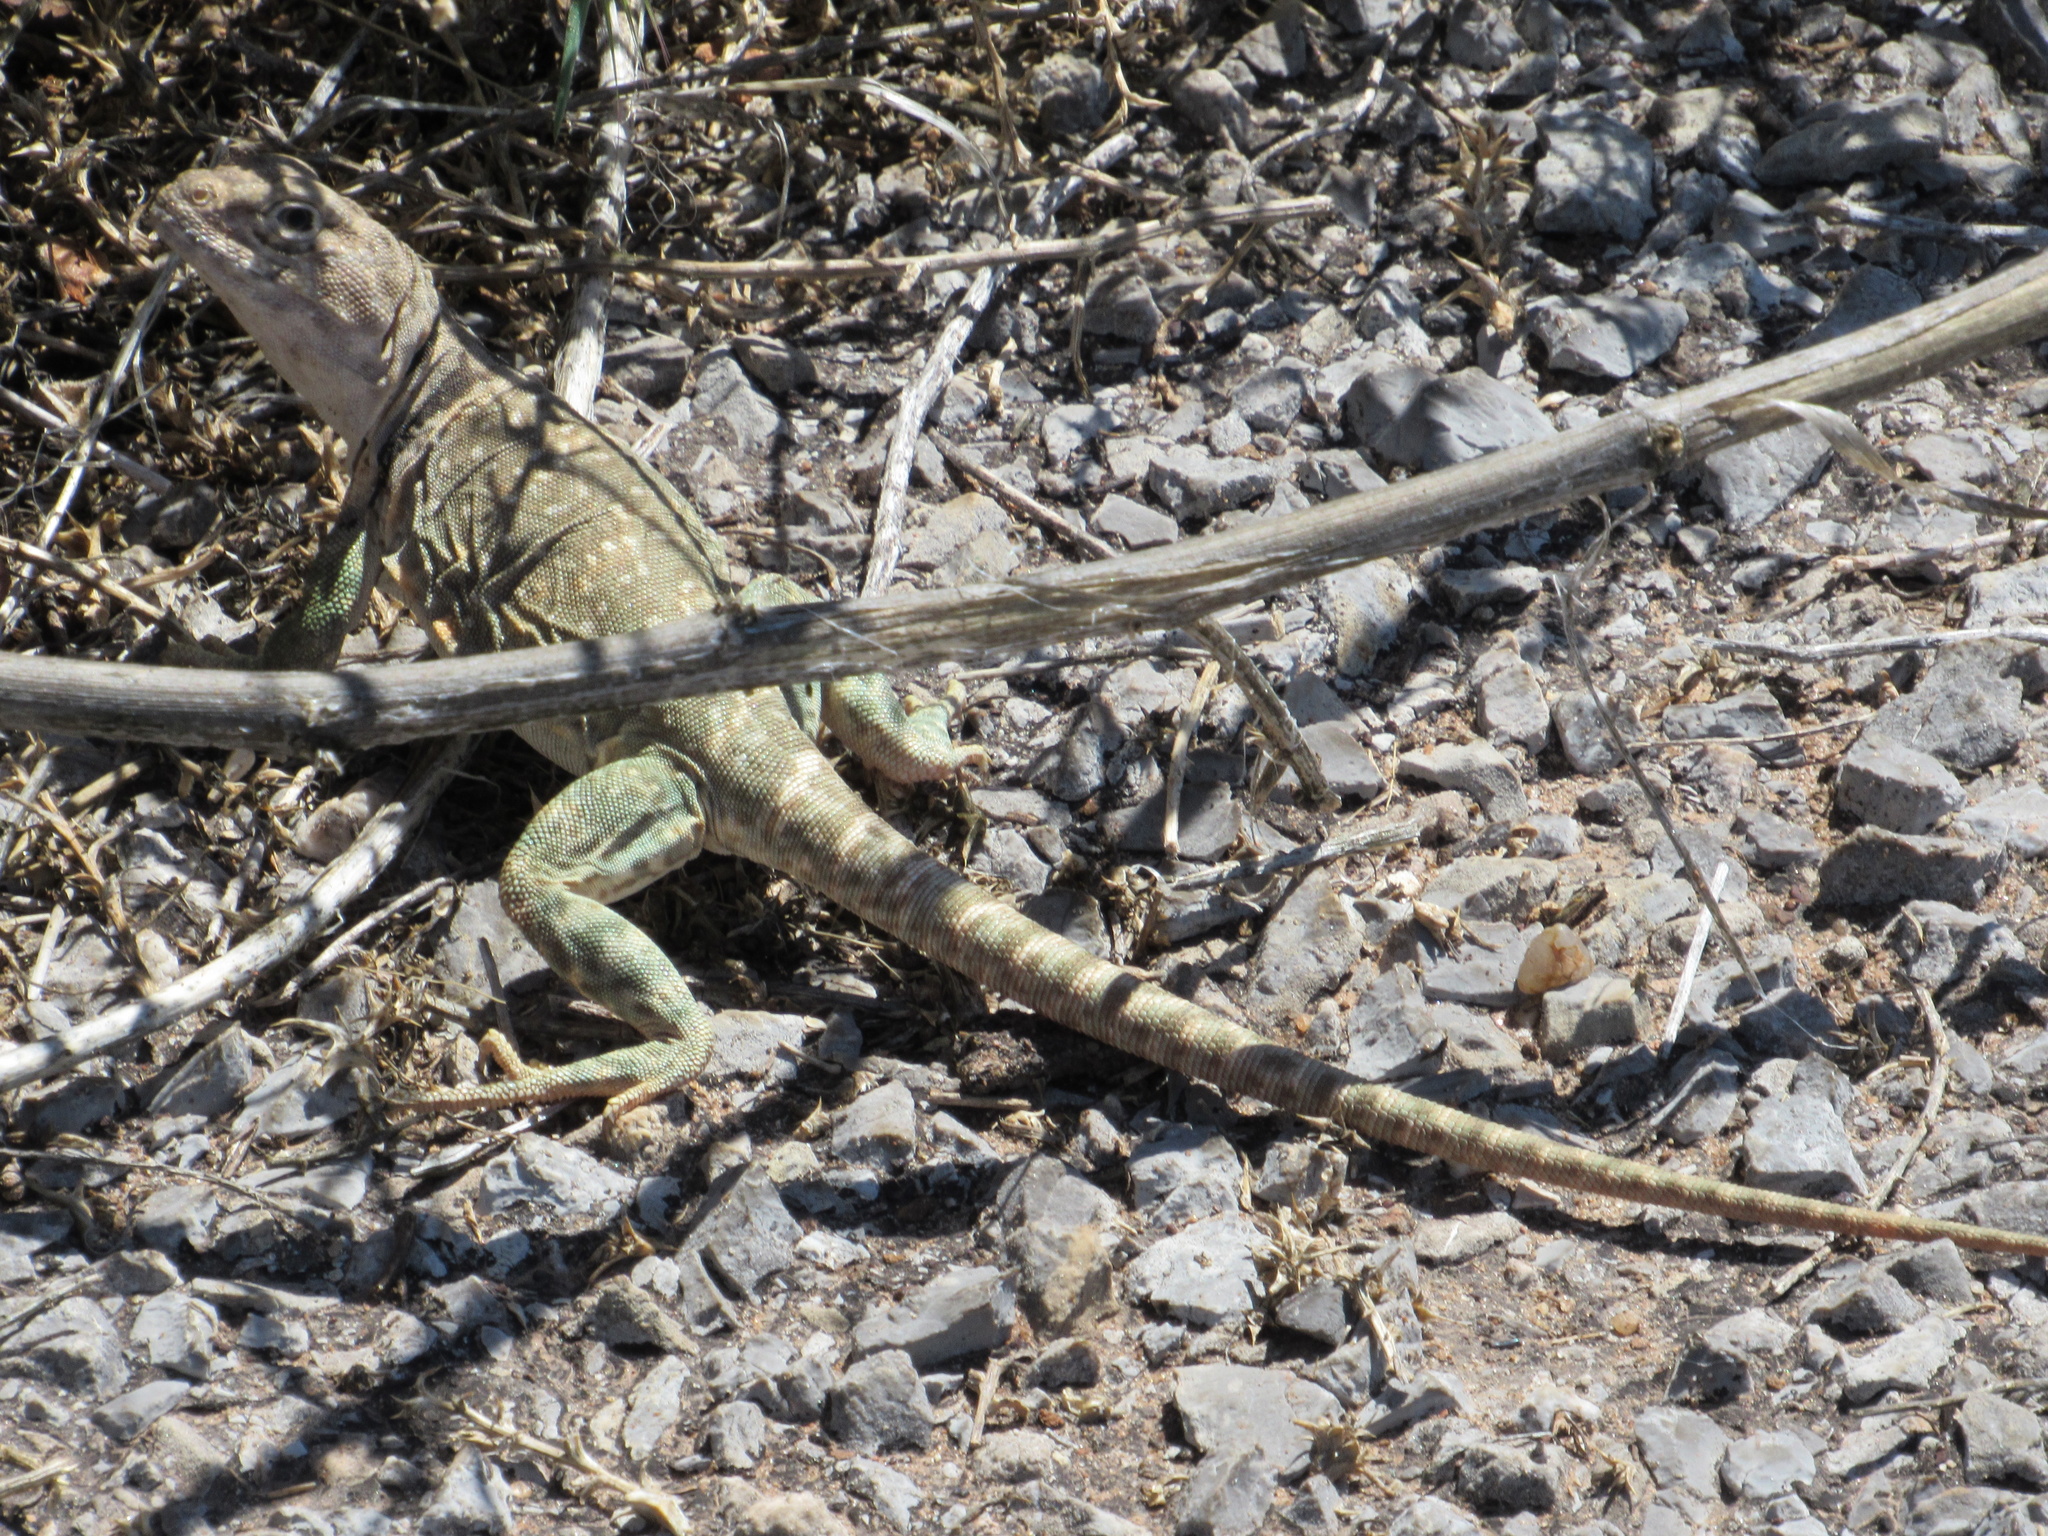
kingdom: Animalia
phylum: Chordata
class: Squamata
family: Crotaphytidae
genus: Crotaphytus
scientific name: Crotaphytus collaris
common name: Collared lizard
